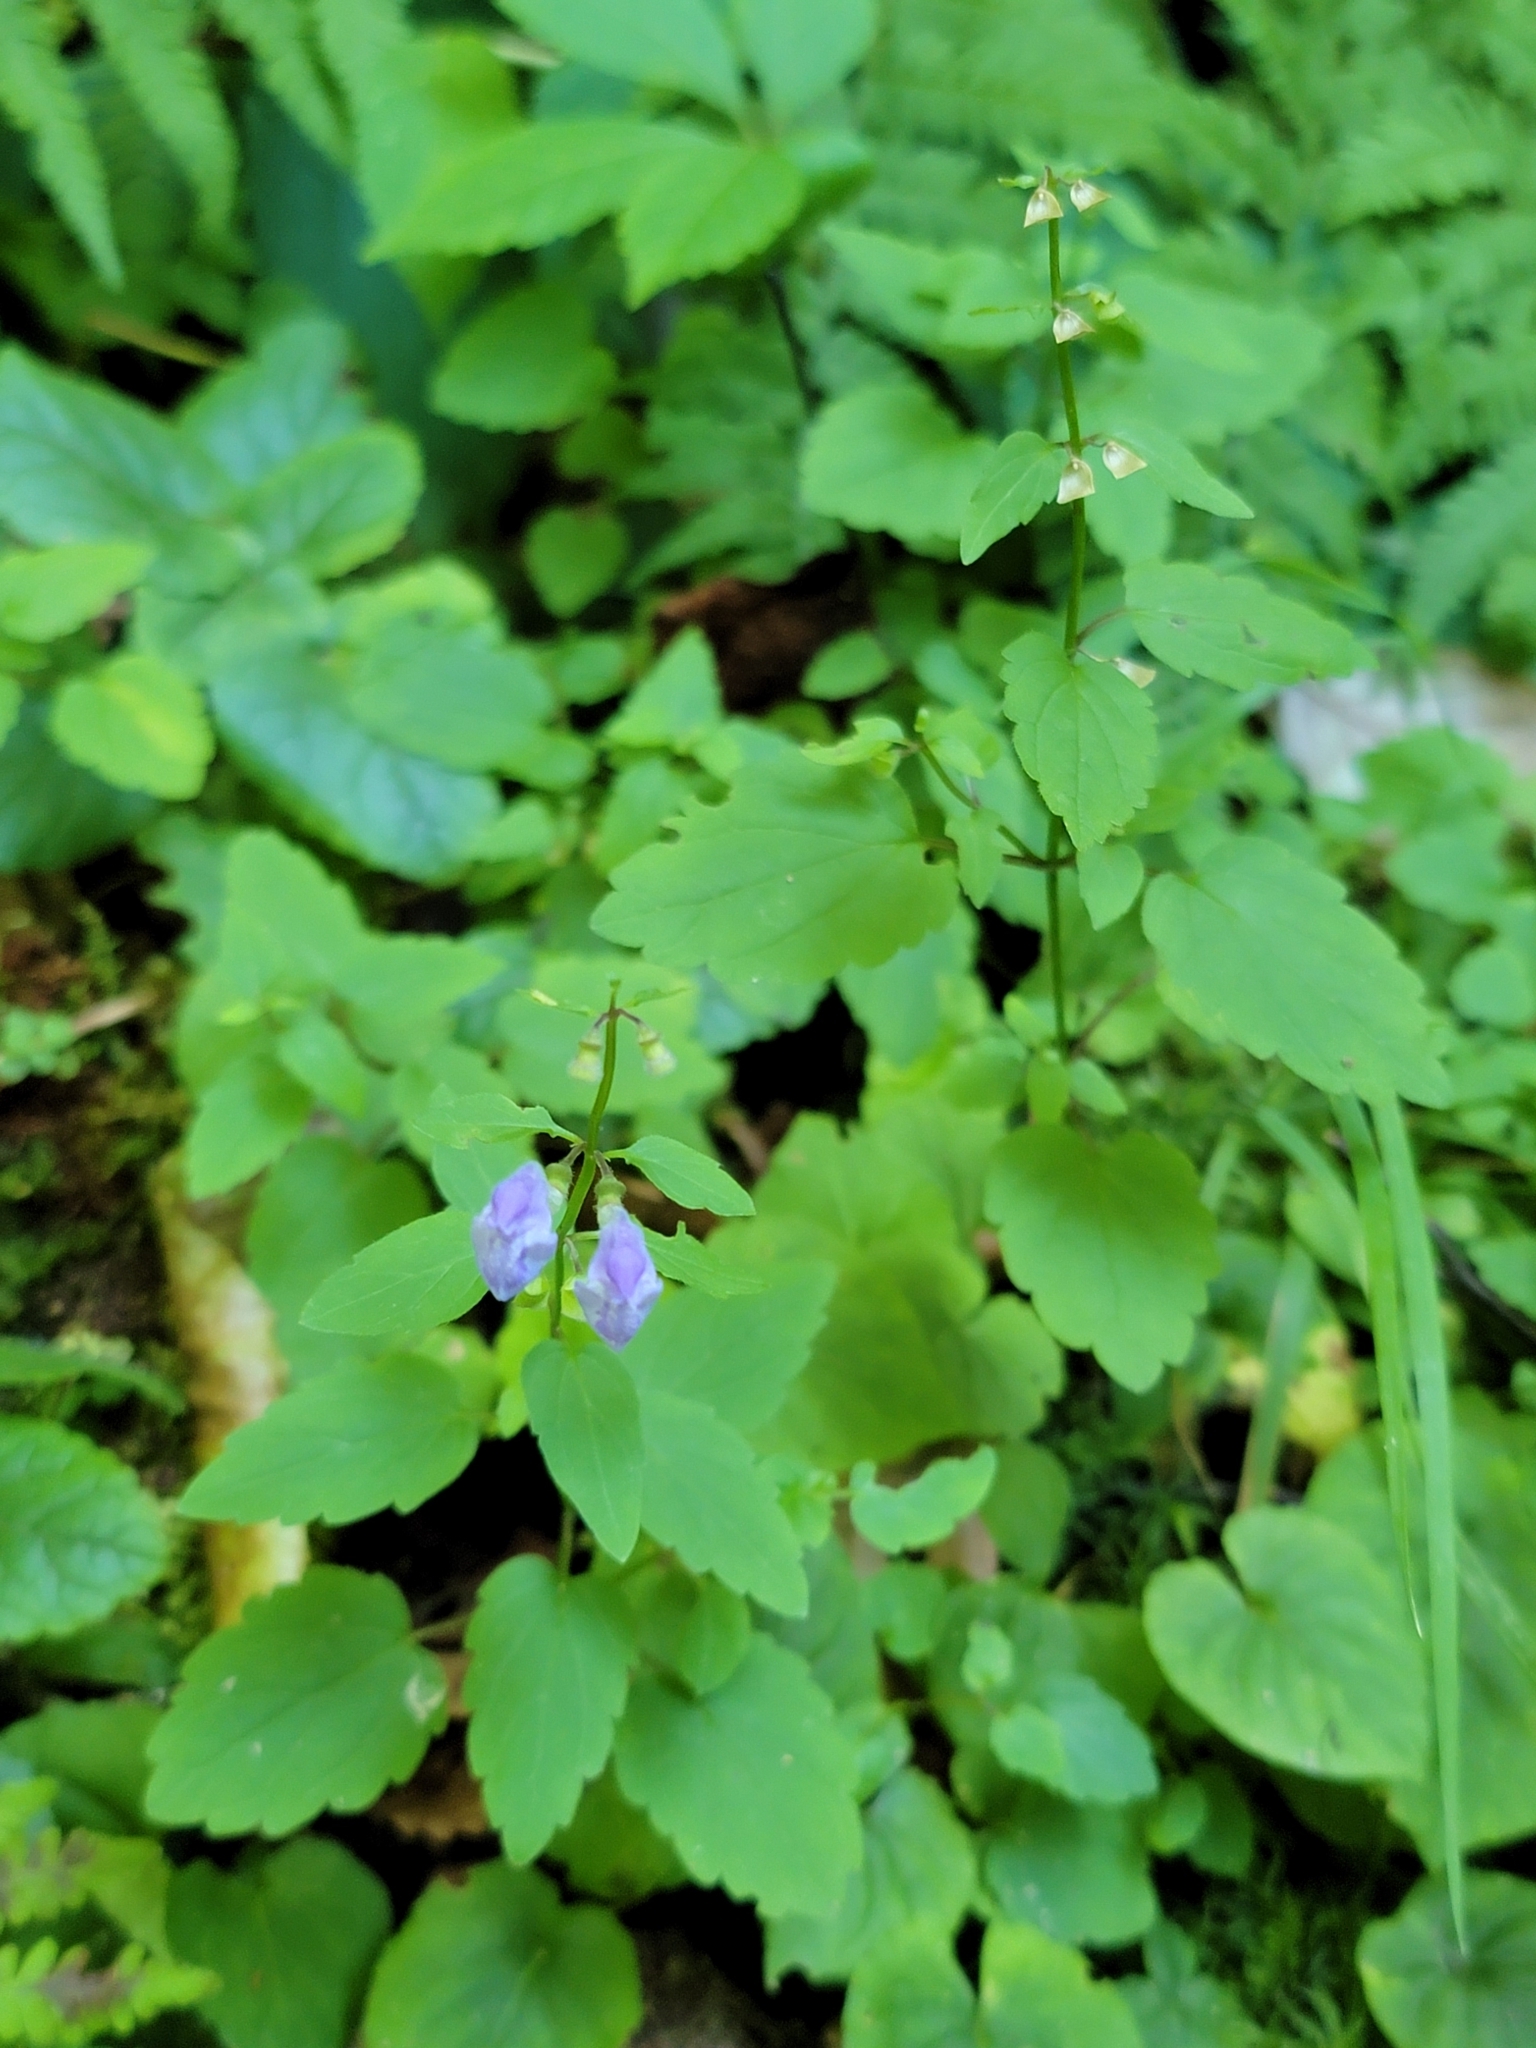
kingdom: Plantae
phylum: Tracheophyta
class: Magnoliopsida
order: Lamiales
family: Lamiaceae
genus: Scutellaria
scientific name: Scutellaria saxatilis
